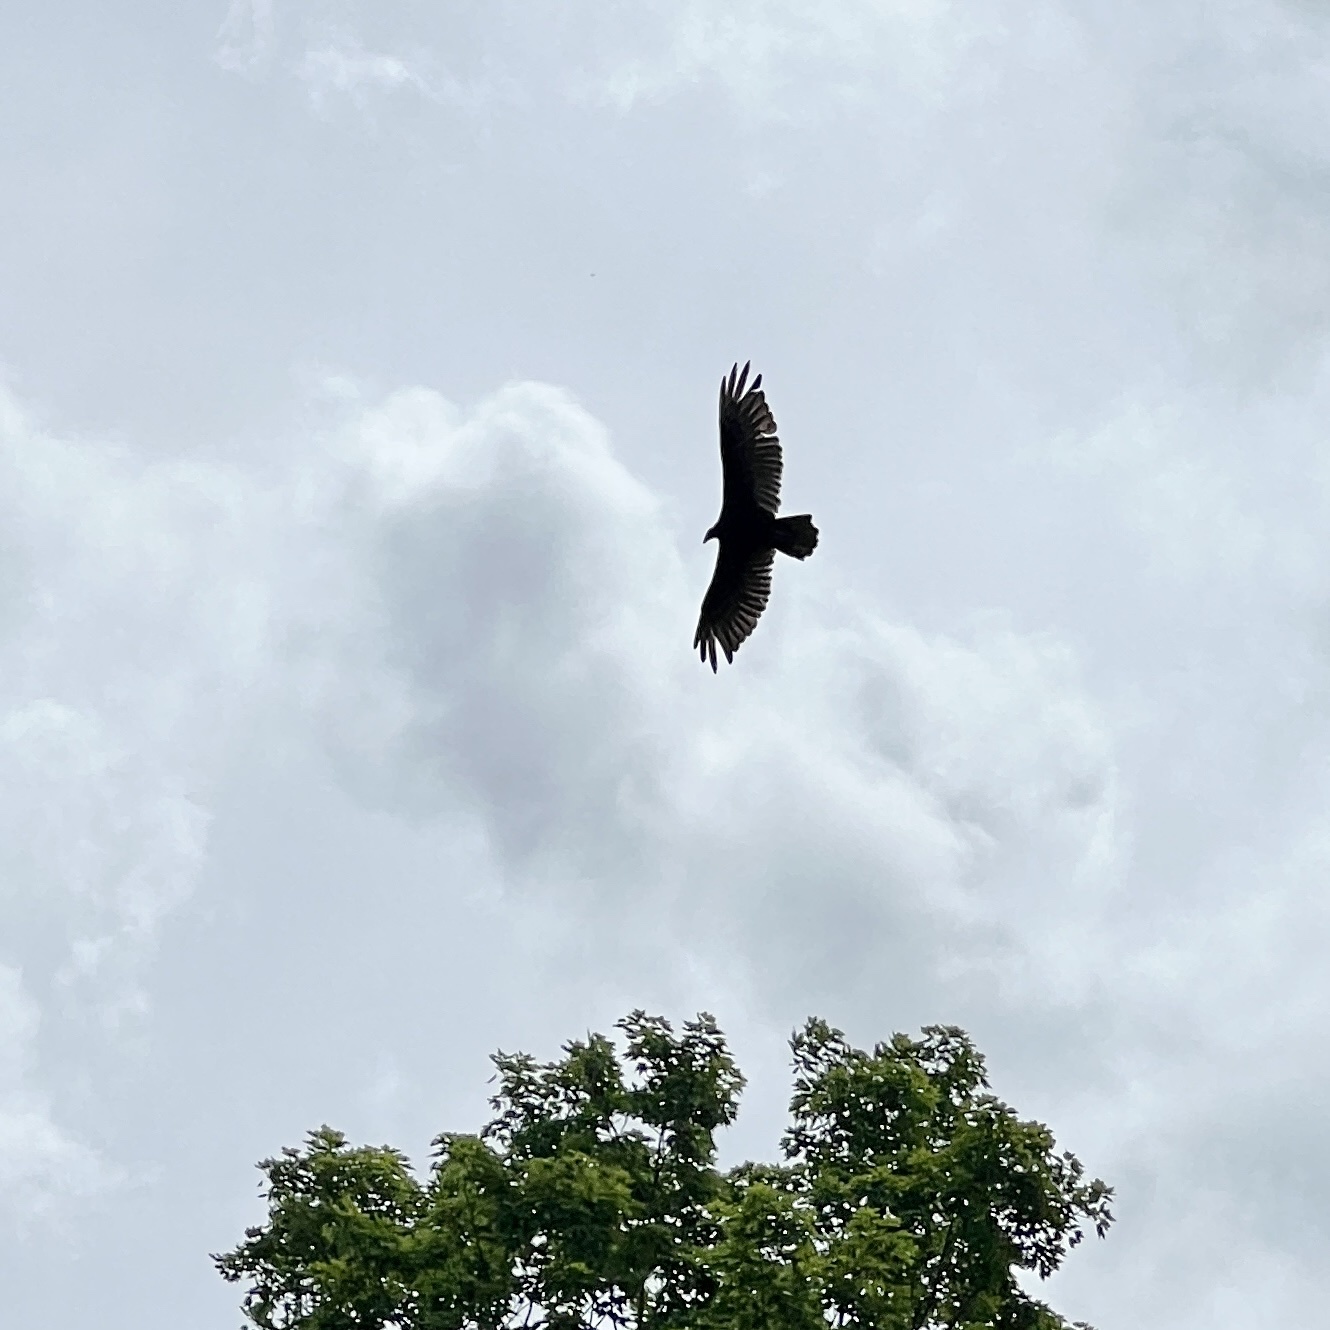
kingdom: Animalia
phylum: Chordata
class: Aves
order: Accipitriformes
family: Cathartidae
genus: Cathartes
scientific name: Cathartes aura
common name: Turkey vulture
